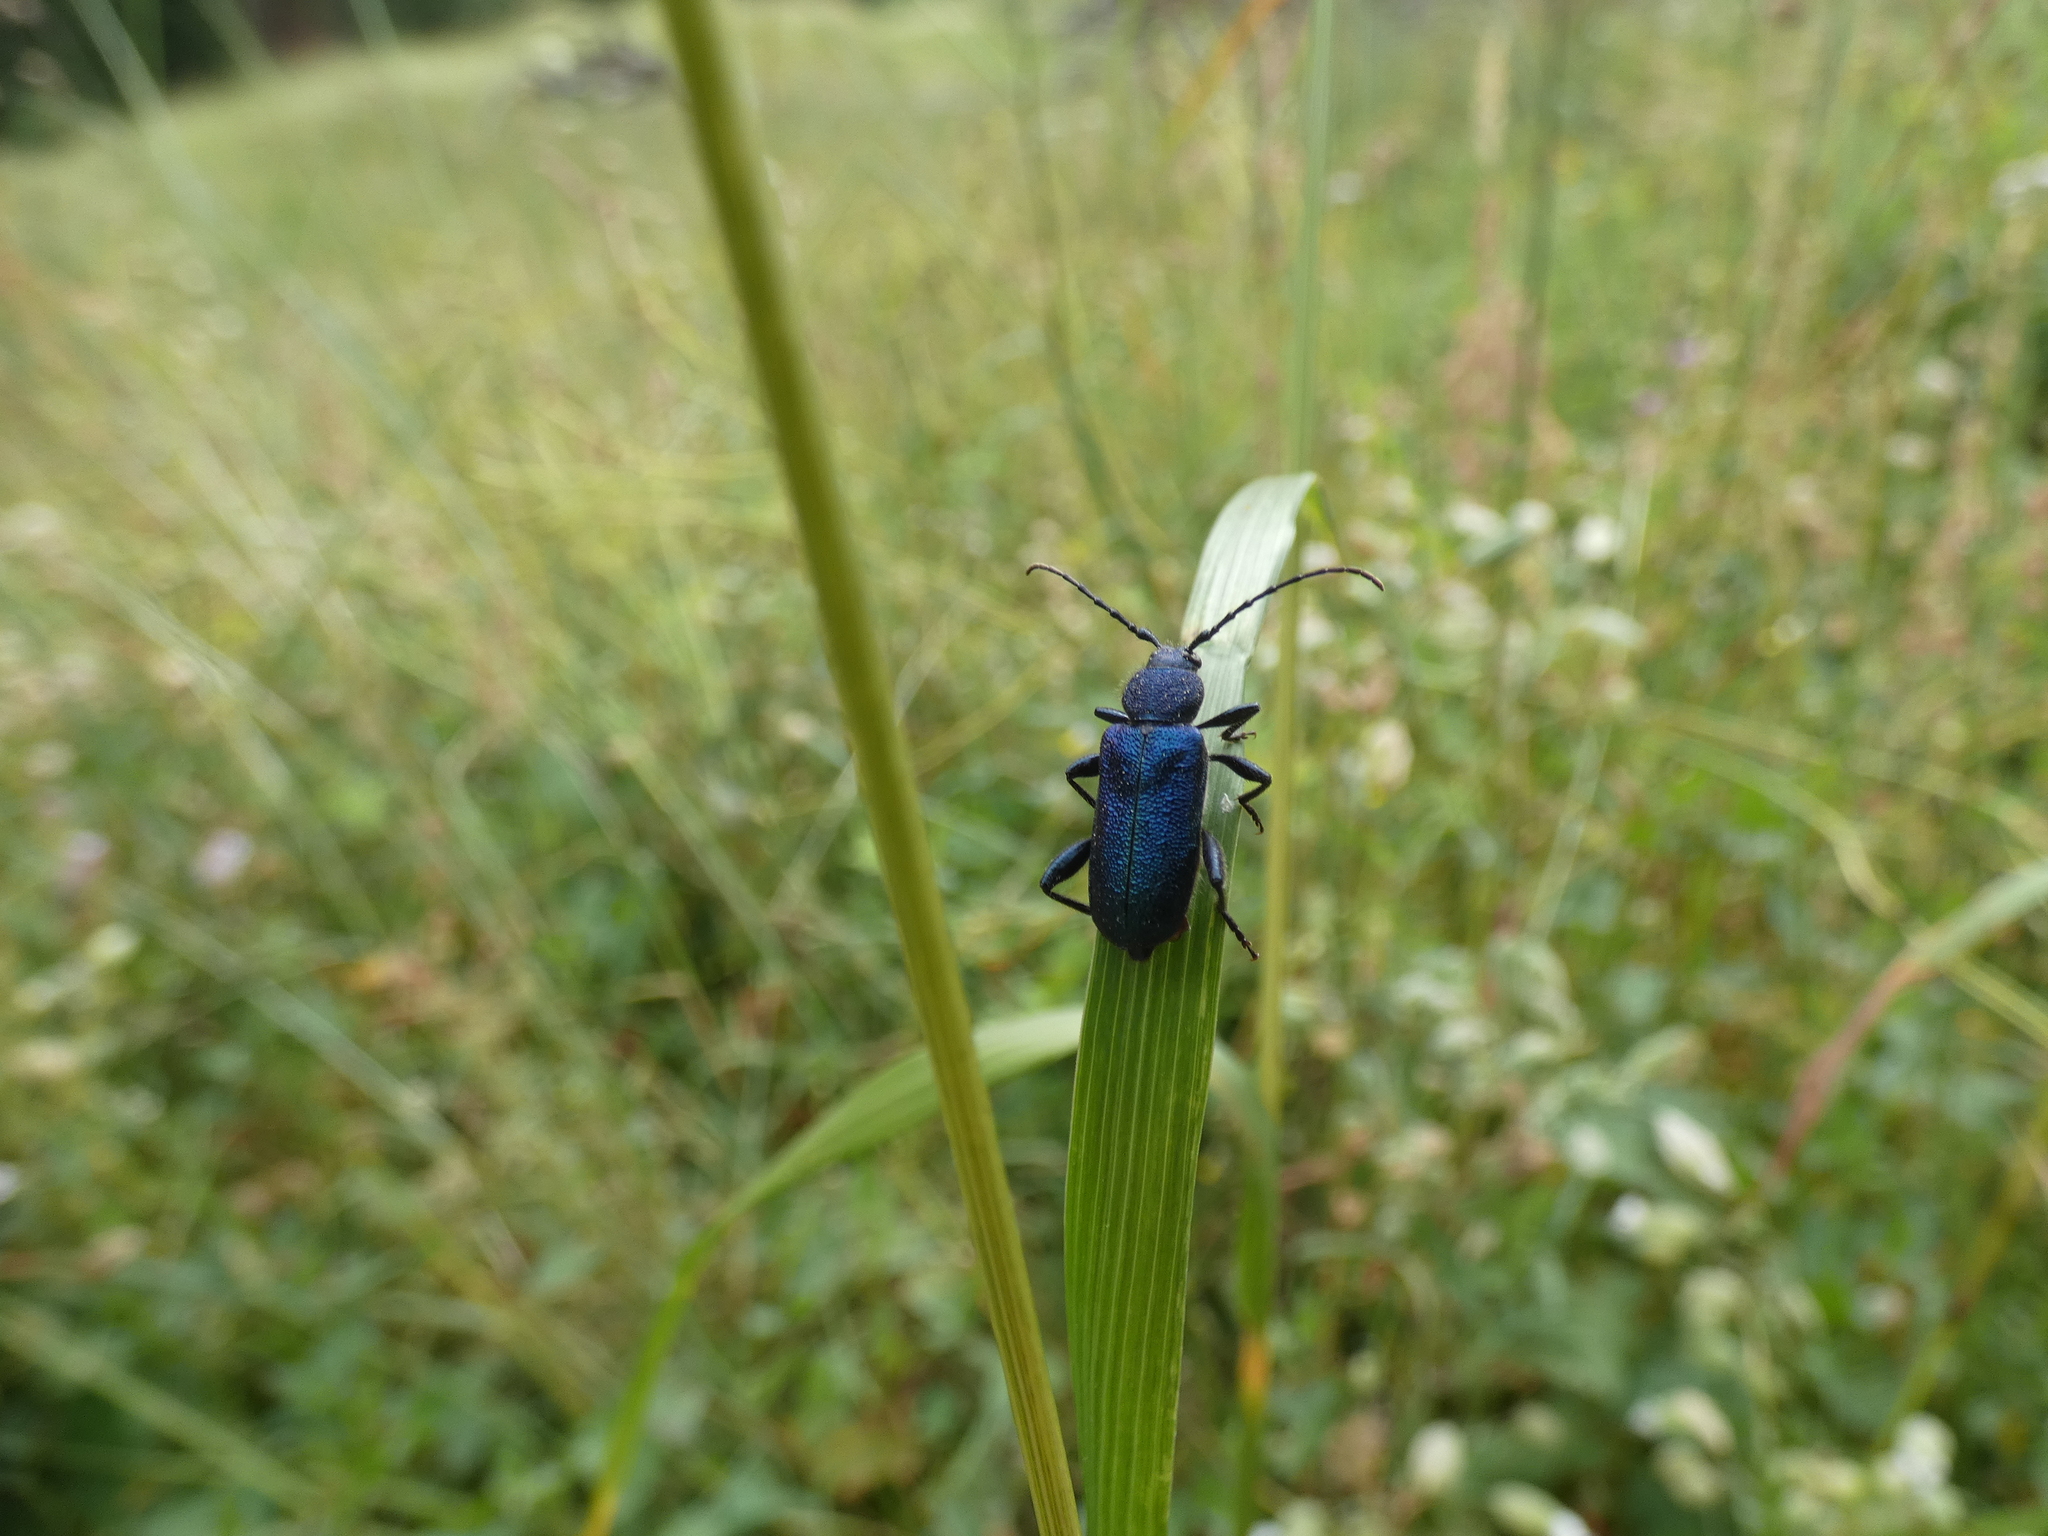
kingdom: Animalia
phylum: Arthropoda
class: Insecta
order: Coleoptera
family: Cerambycidae
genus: Callidium
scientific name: Callidium violaceum
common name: Violet tanbark beetle
